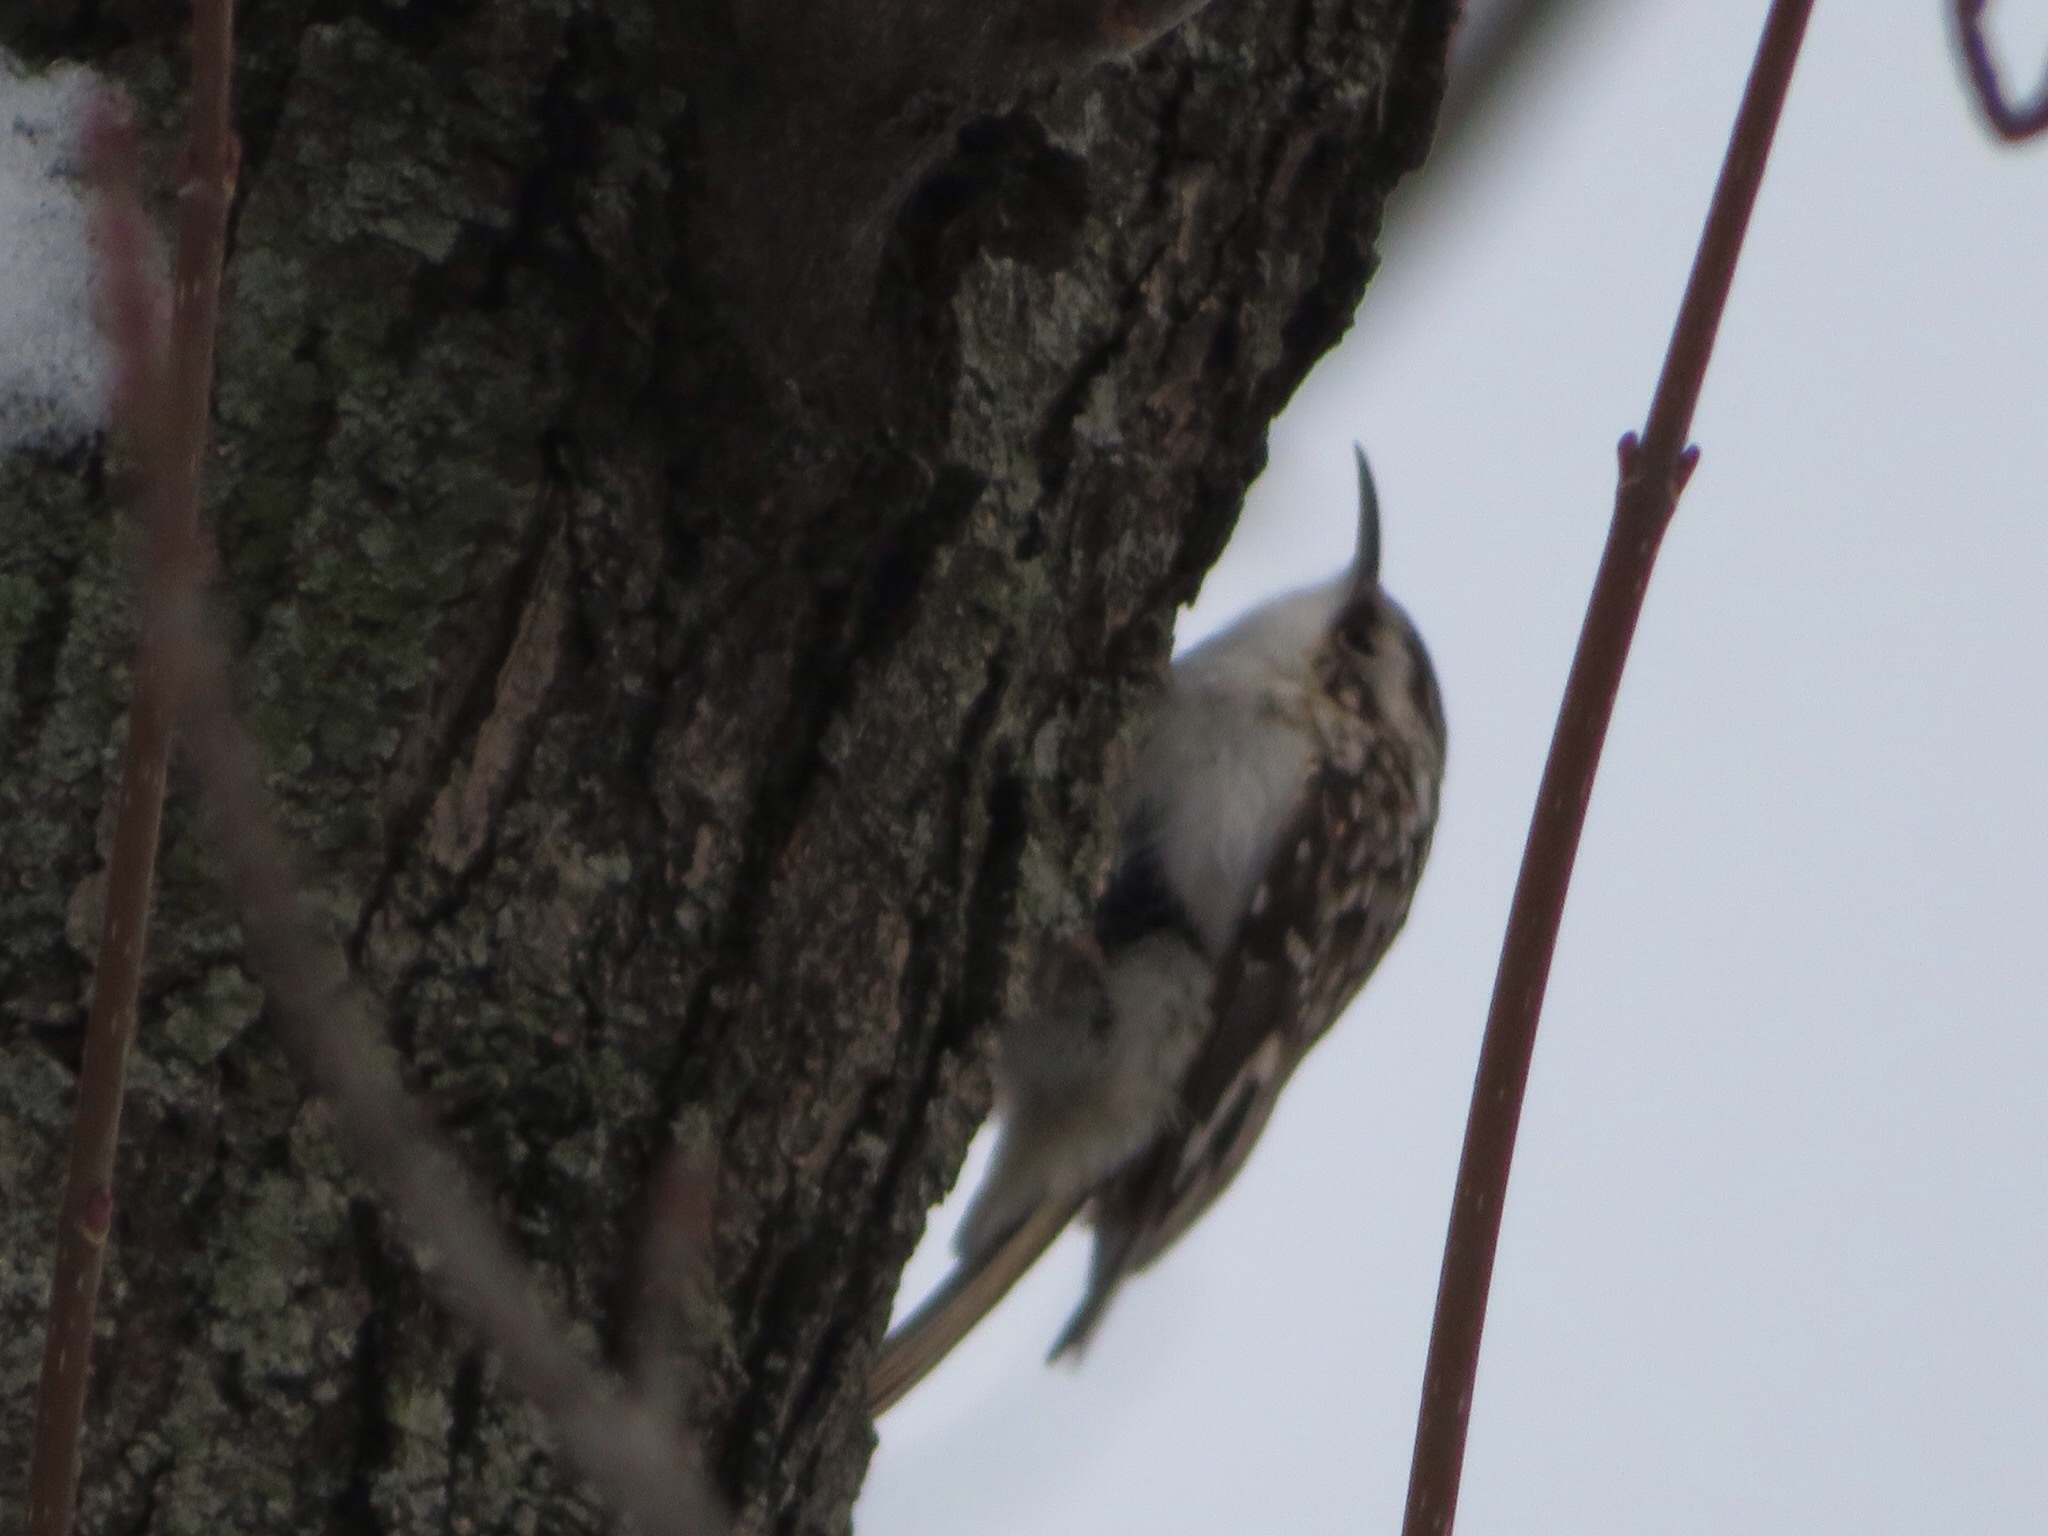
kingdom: Animalia
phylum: Chordata
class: Aves
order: Passeriformes
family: Certhiidae
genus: Certhia
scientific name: Certhia americana
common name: Brown creeper
